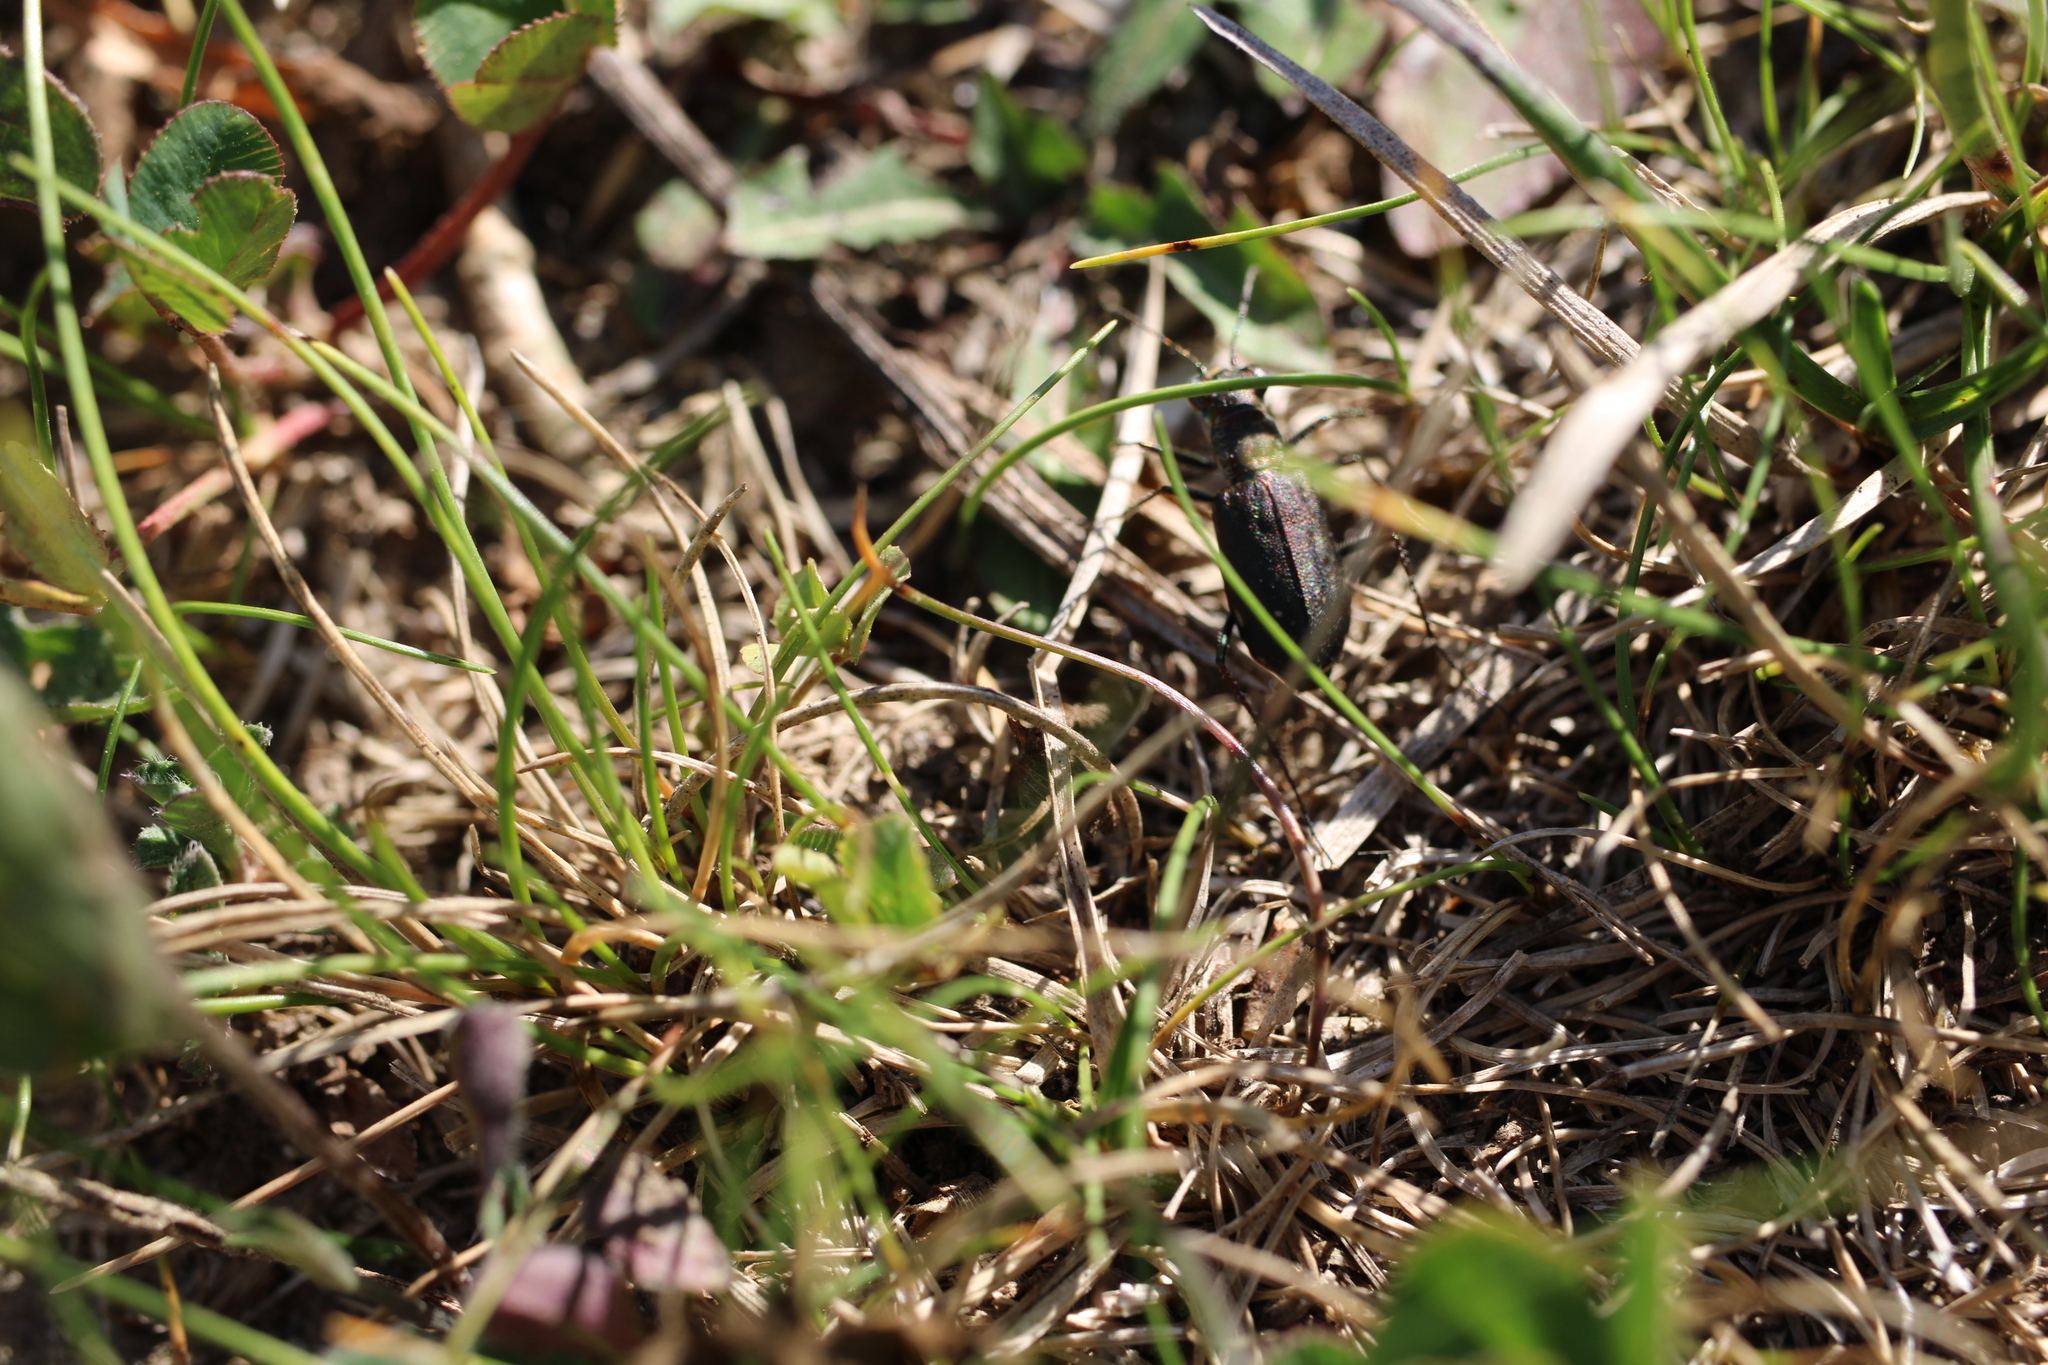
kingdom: Animalia
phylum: Arthropoda
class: Insecta
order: Coleoptera
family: Carabidae
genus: Cicindela
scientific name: Cicindela punctulata
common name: Punctured tiger beetle
